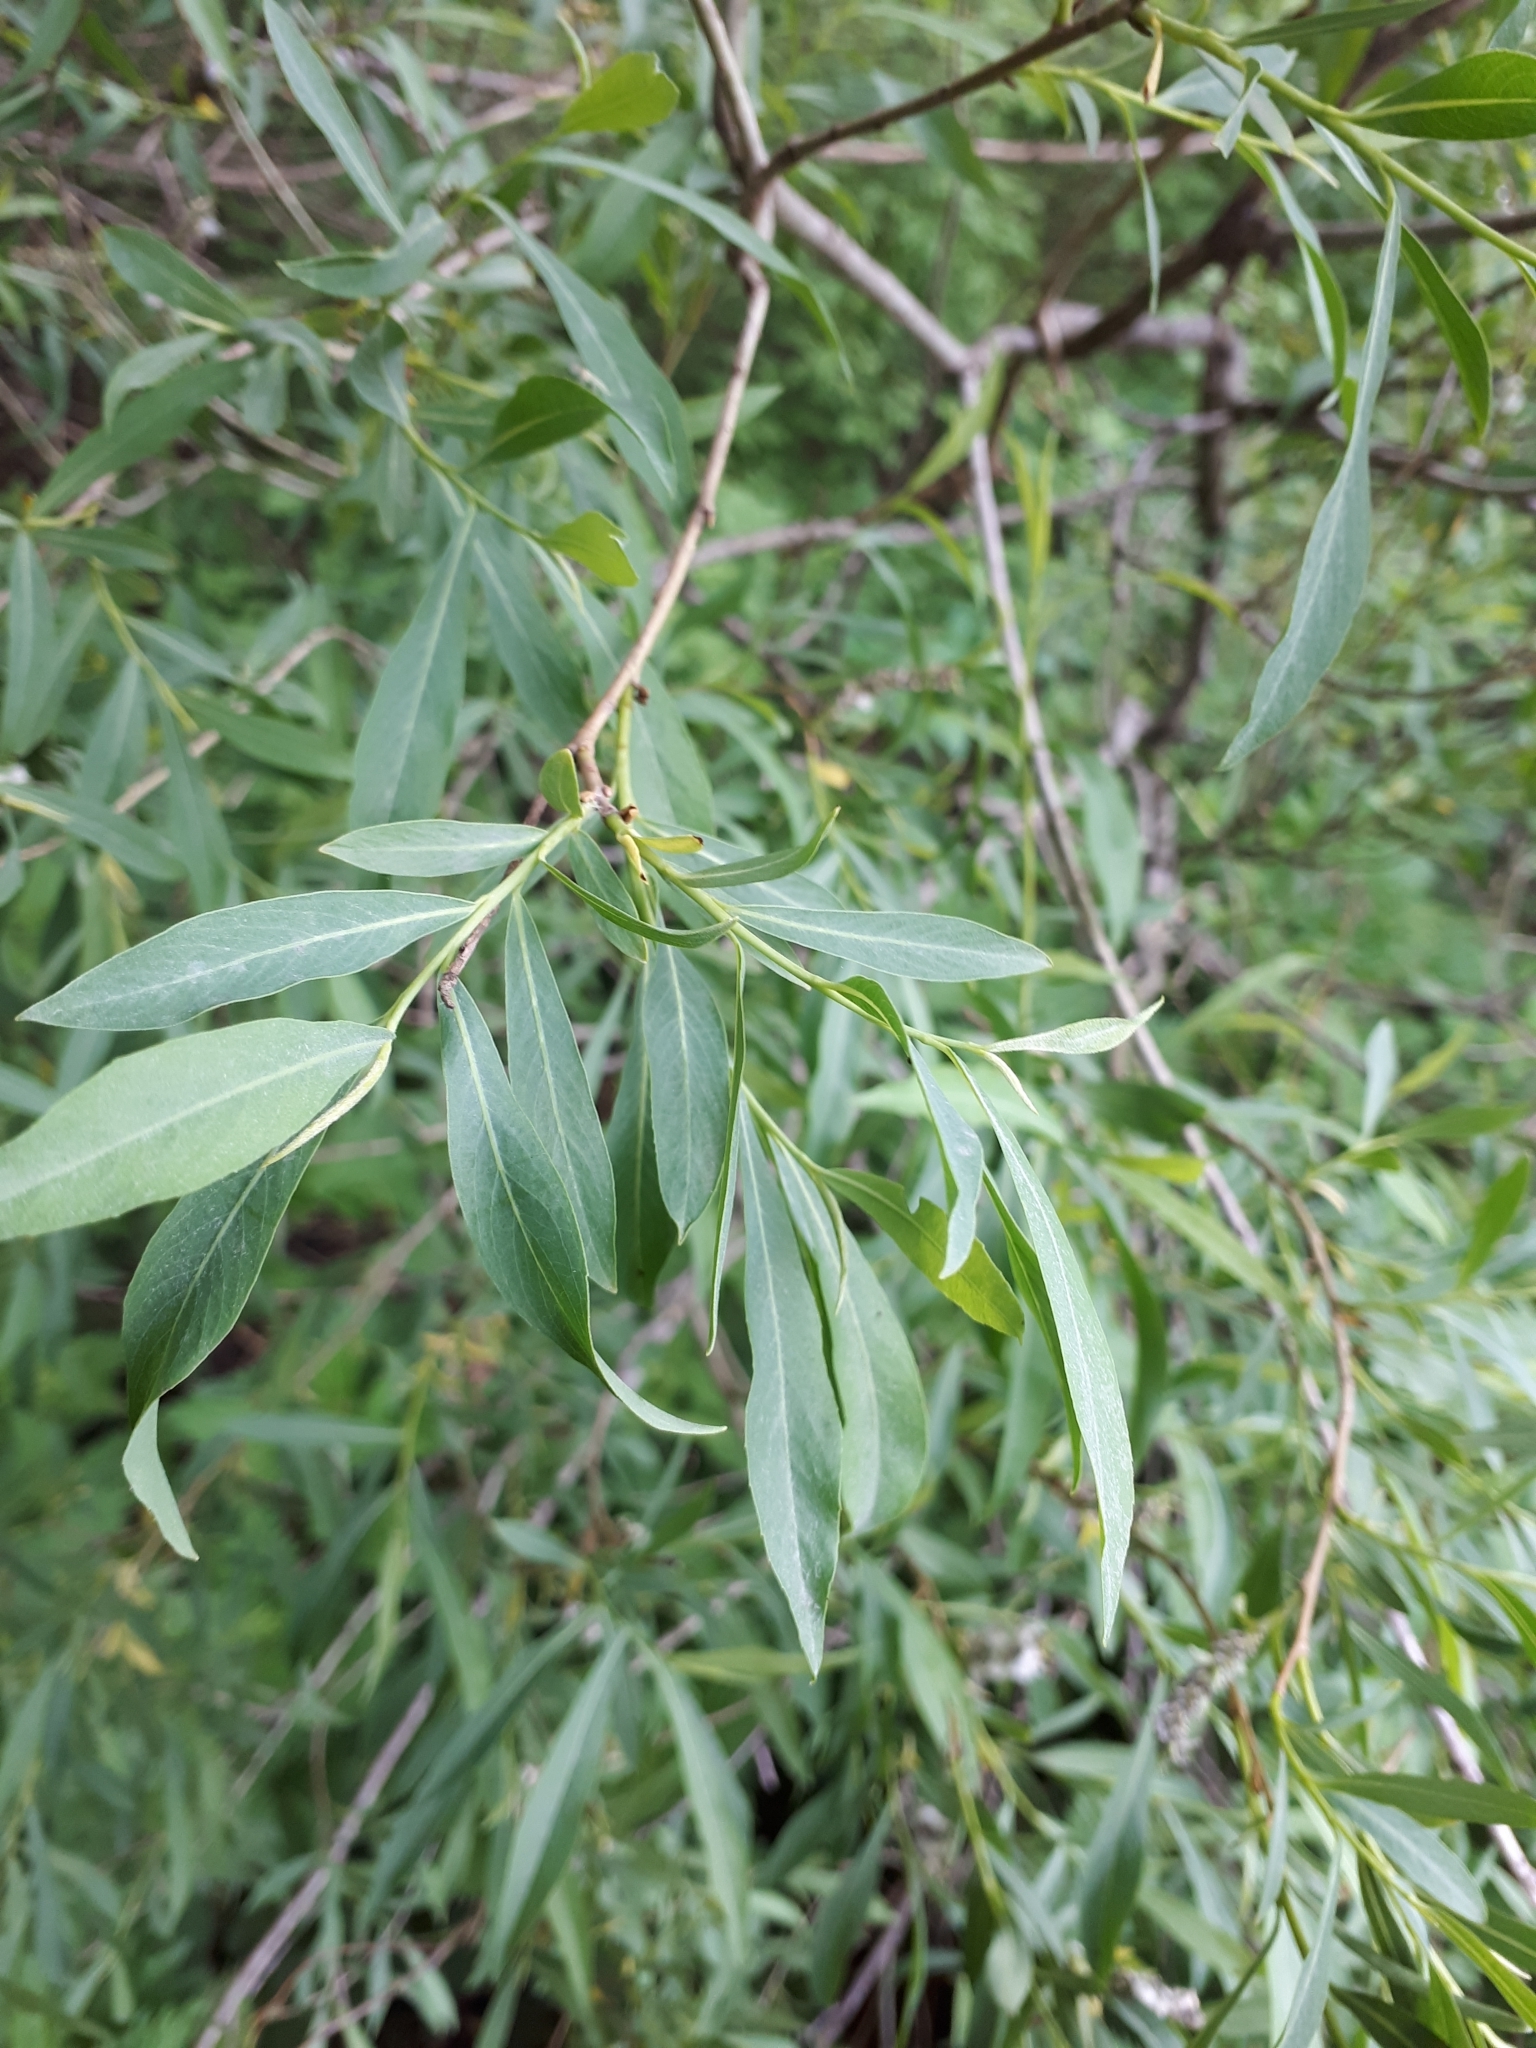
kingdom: Plantae
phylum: Tracheophyta
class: Magnoliopsida
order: Malpighiales
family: Salicaceae
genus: Salix
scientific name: Salix vinogradovii
